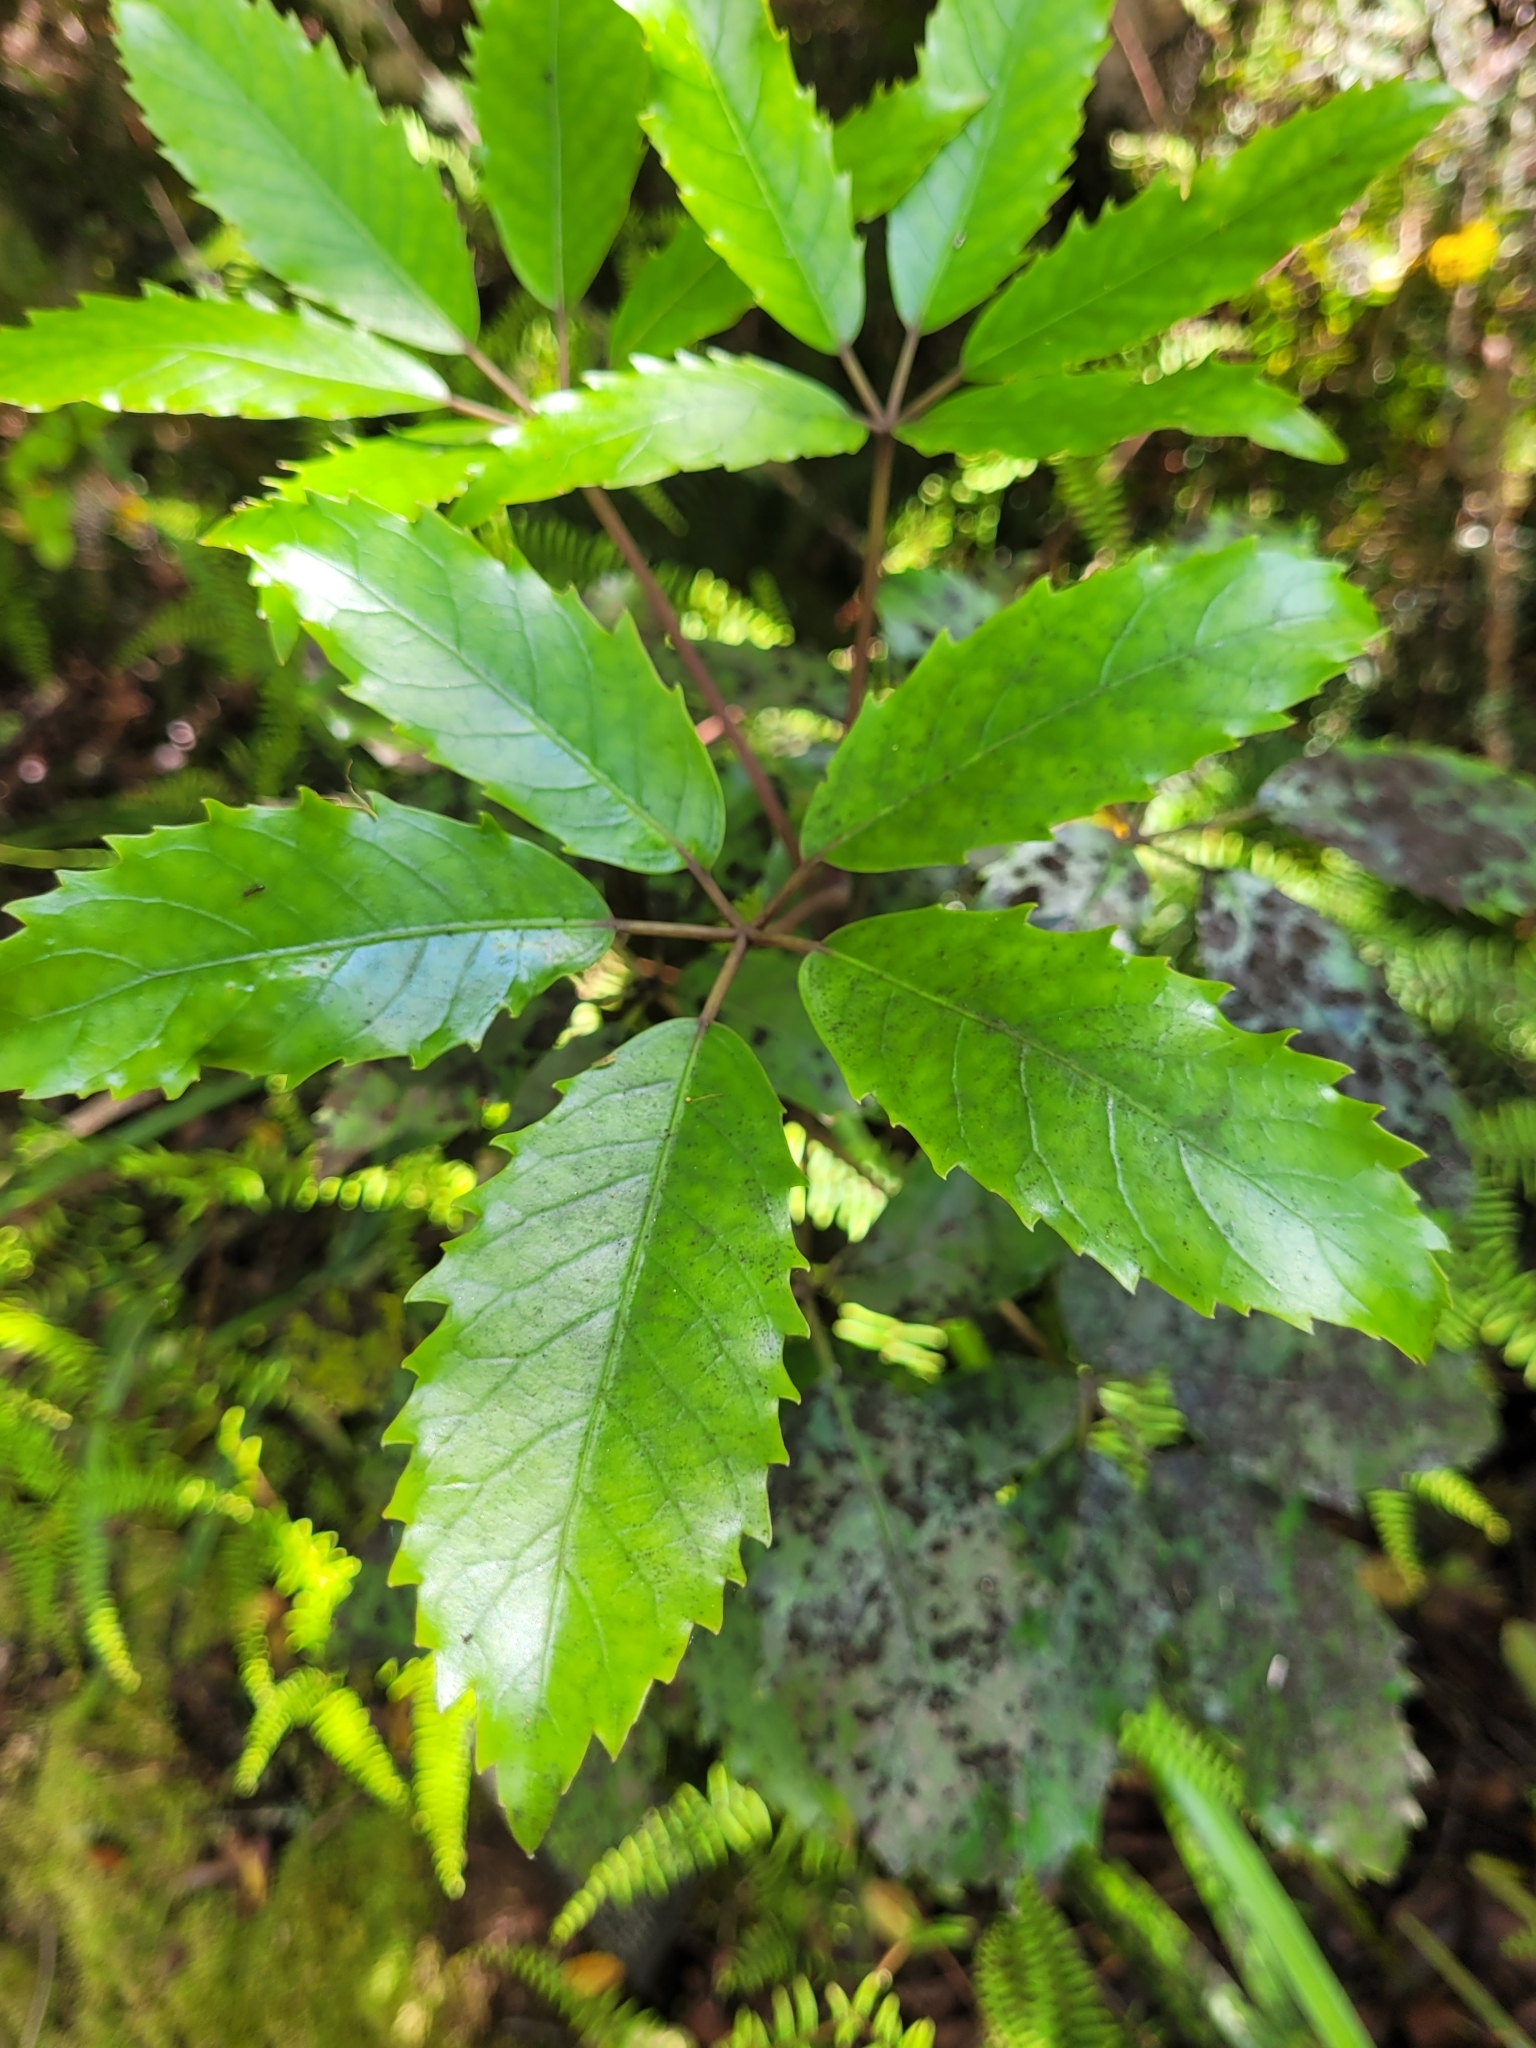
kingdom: Plantae
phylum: Tracheophyta
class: Magnoliopsida
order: Apiales
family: Araliaceae
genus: Neopanax
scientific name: Neopanax arboreus
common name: Five-fingers
